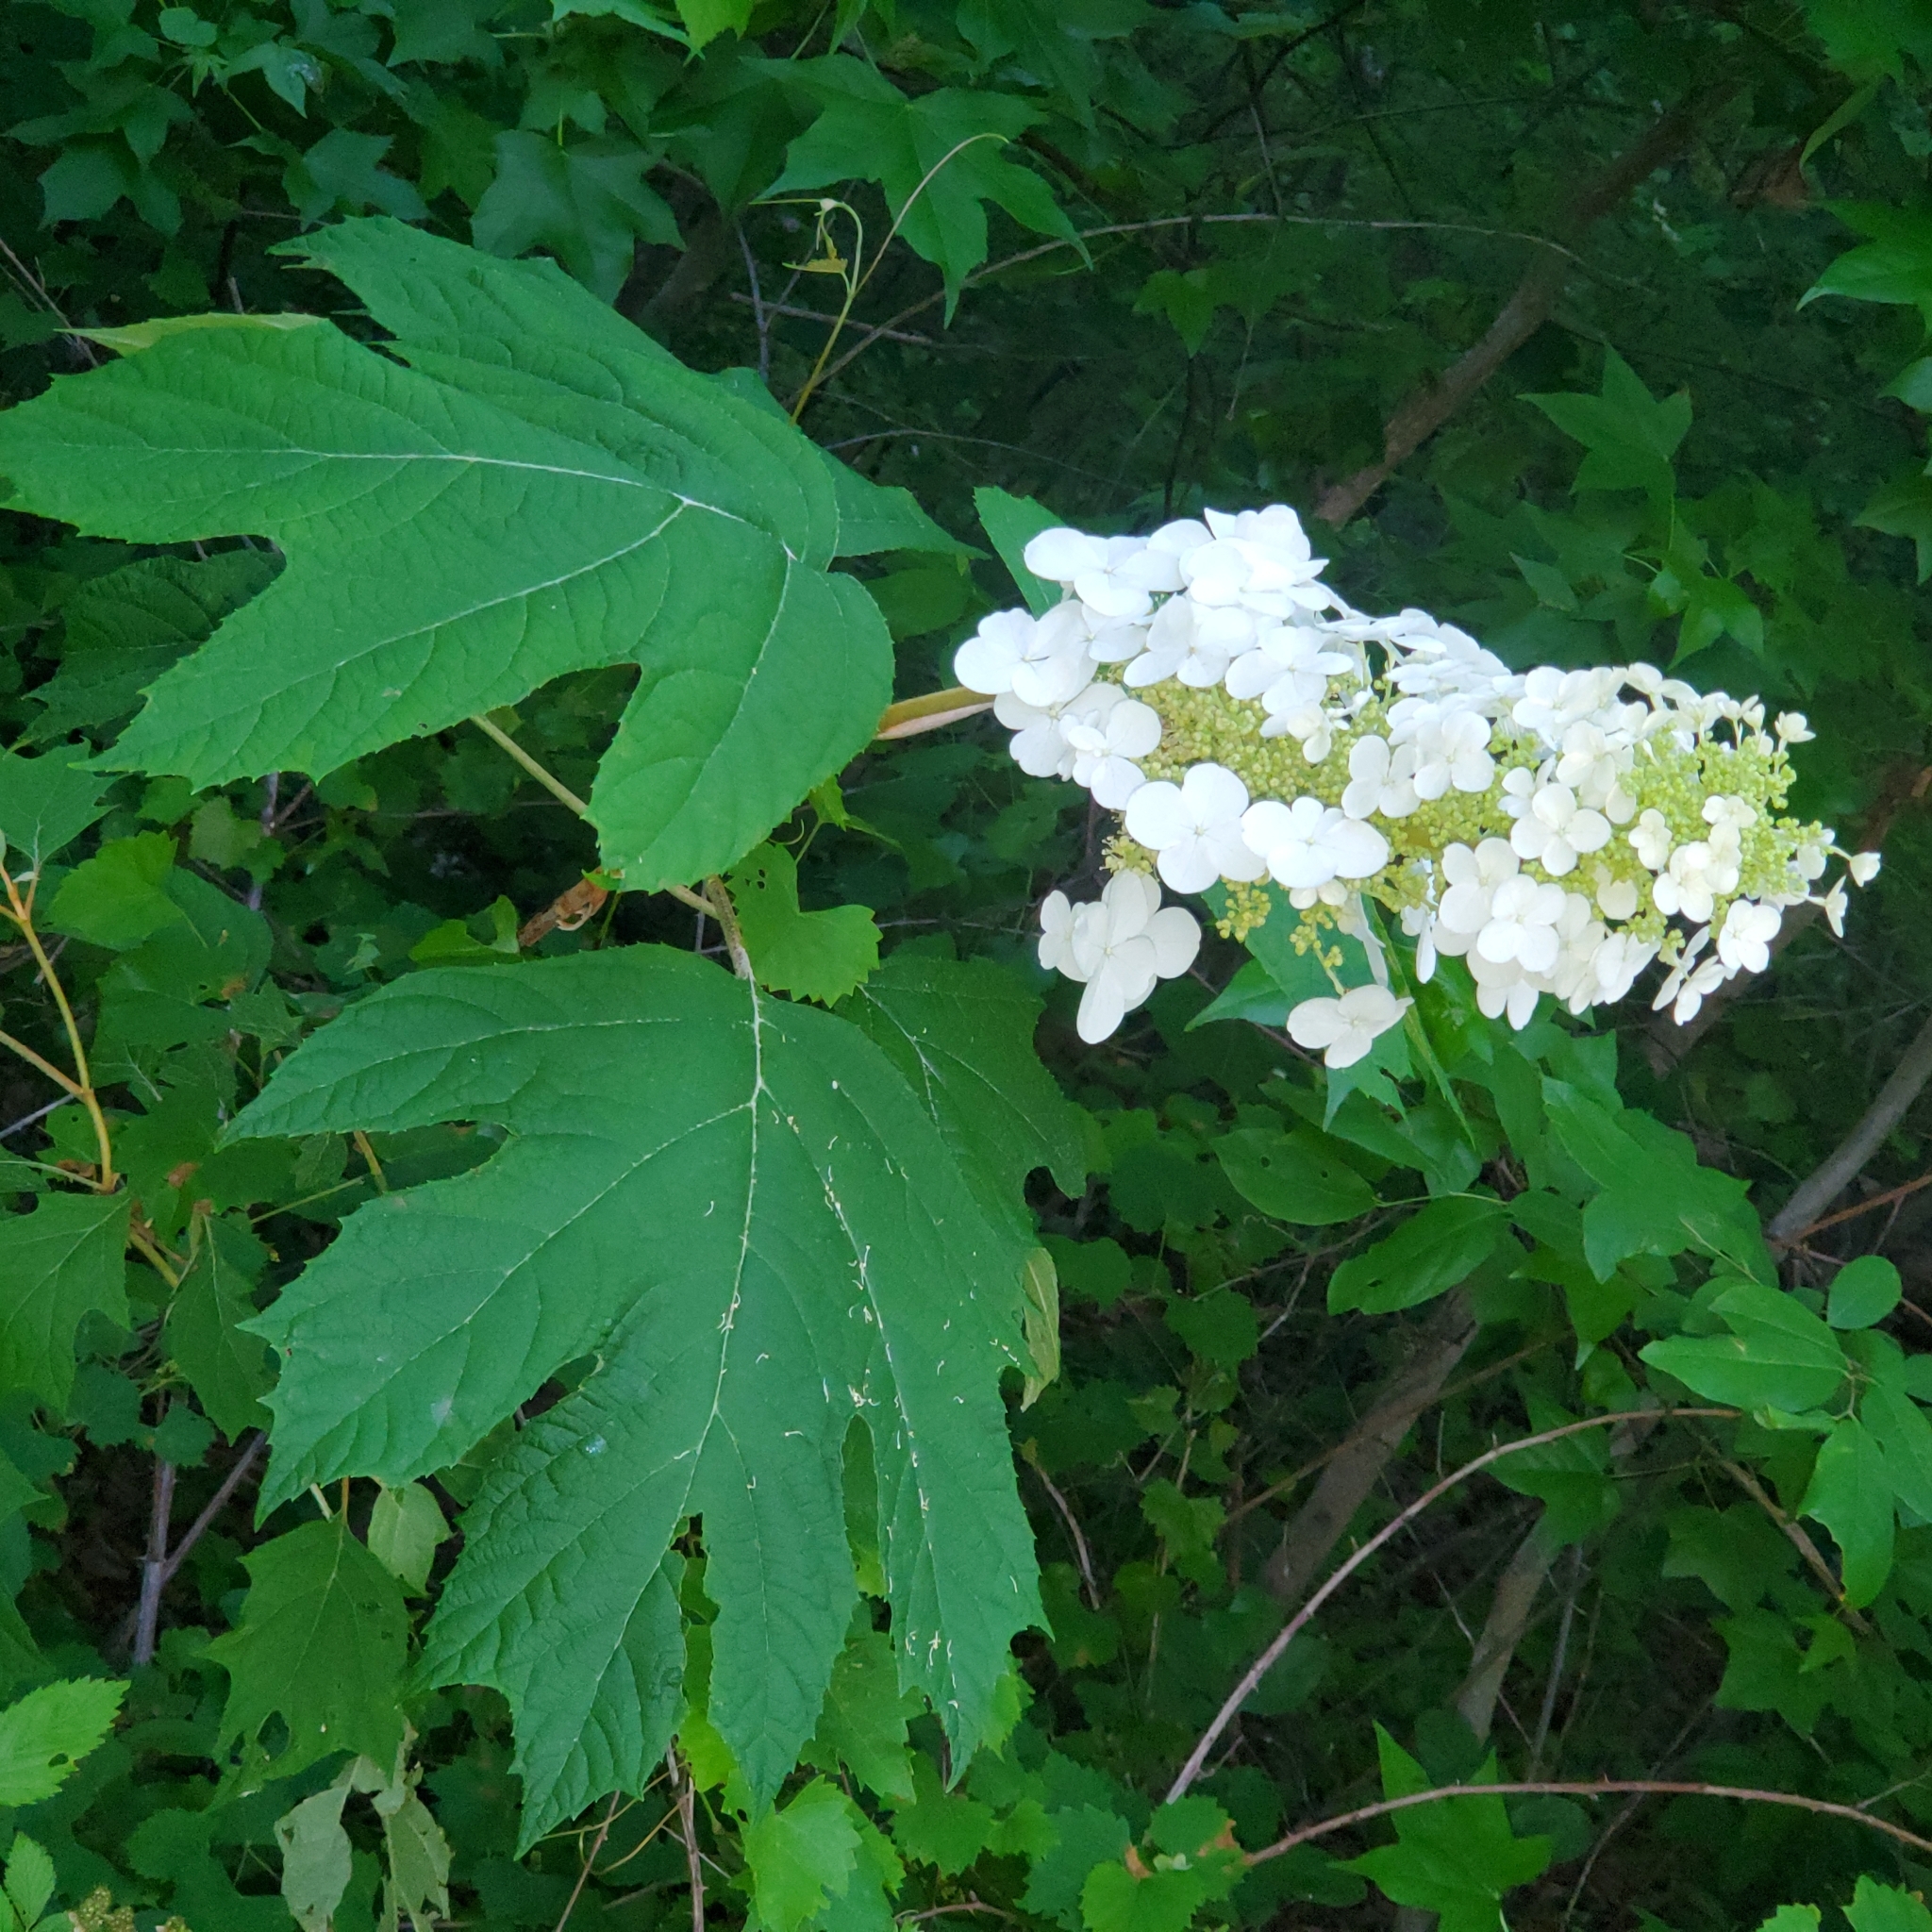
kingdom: Plantae
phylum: Tracheophyta
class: Magnoliopsida
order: Cornales
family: Hydrangeaceae
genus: Hydrangea
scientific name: Hydrangea quercifolia
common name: Oak-leaf hydrangea
